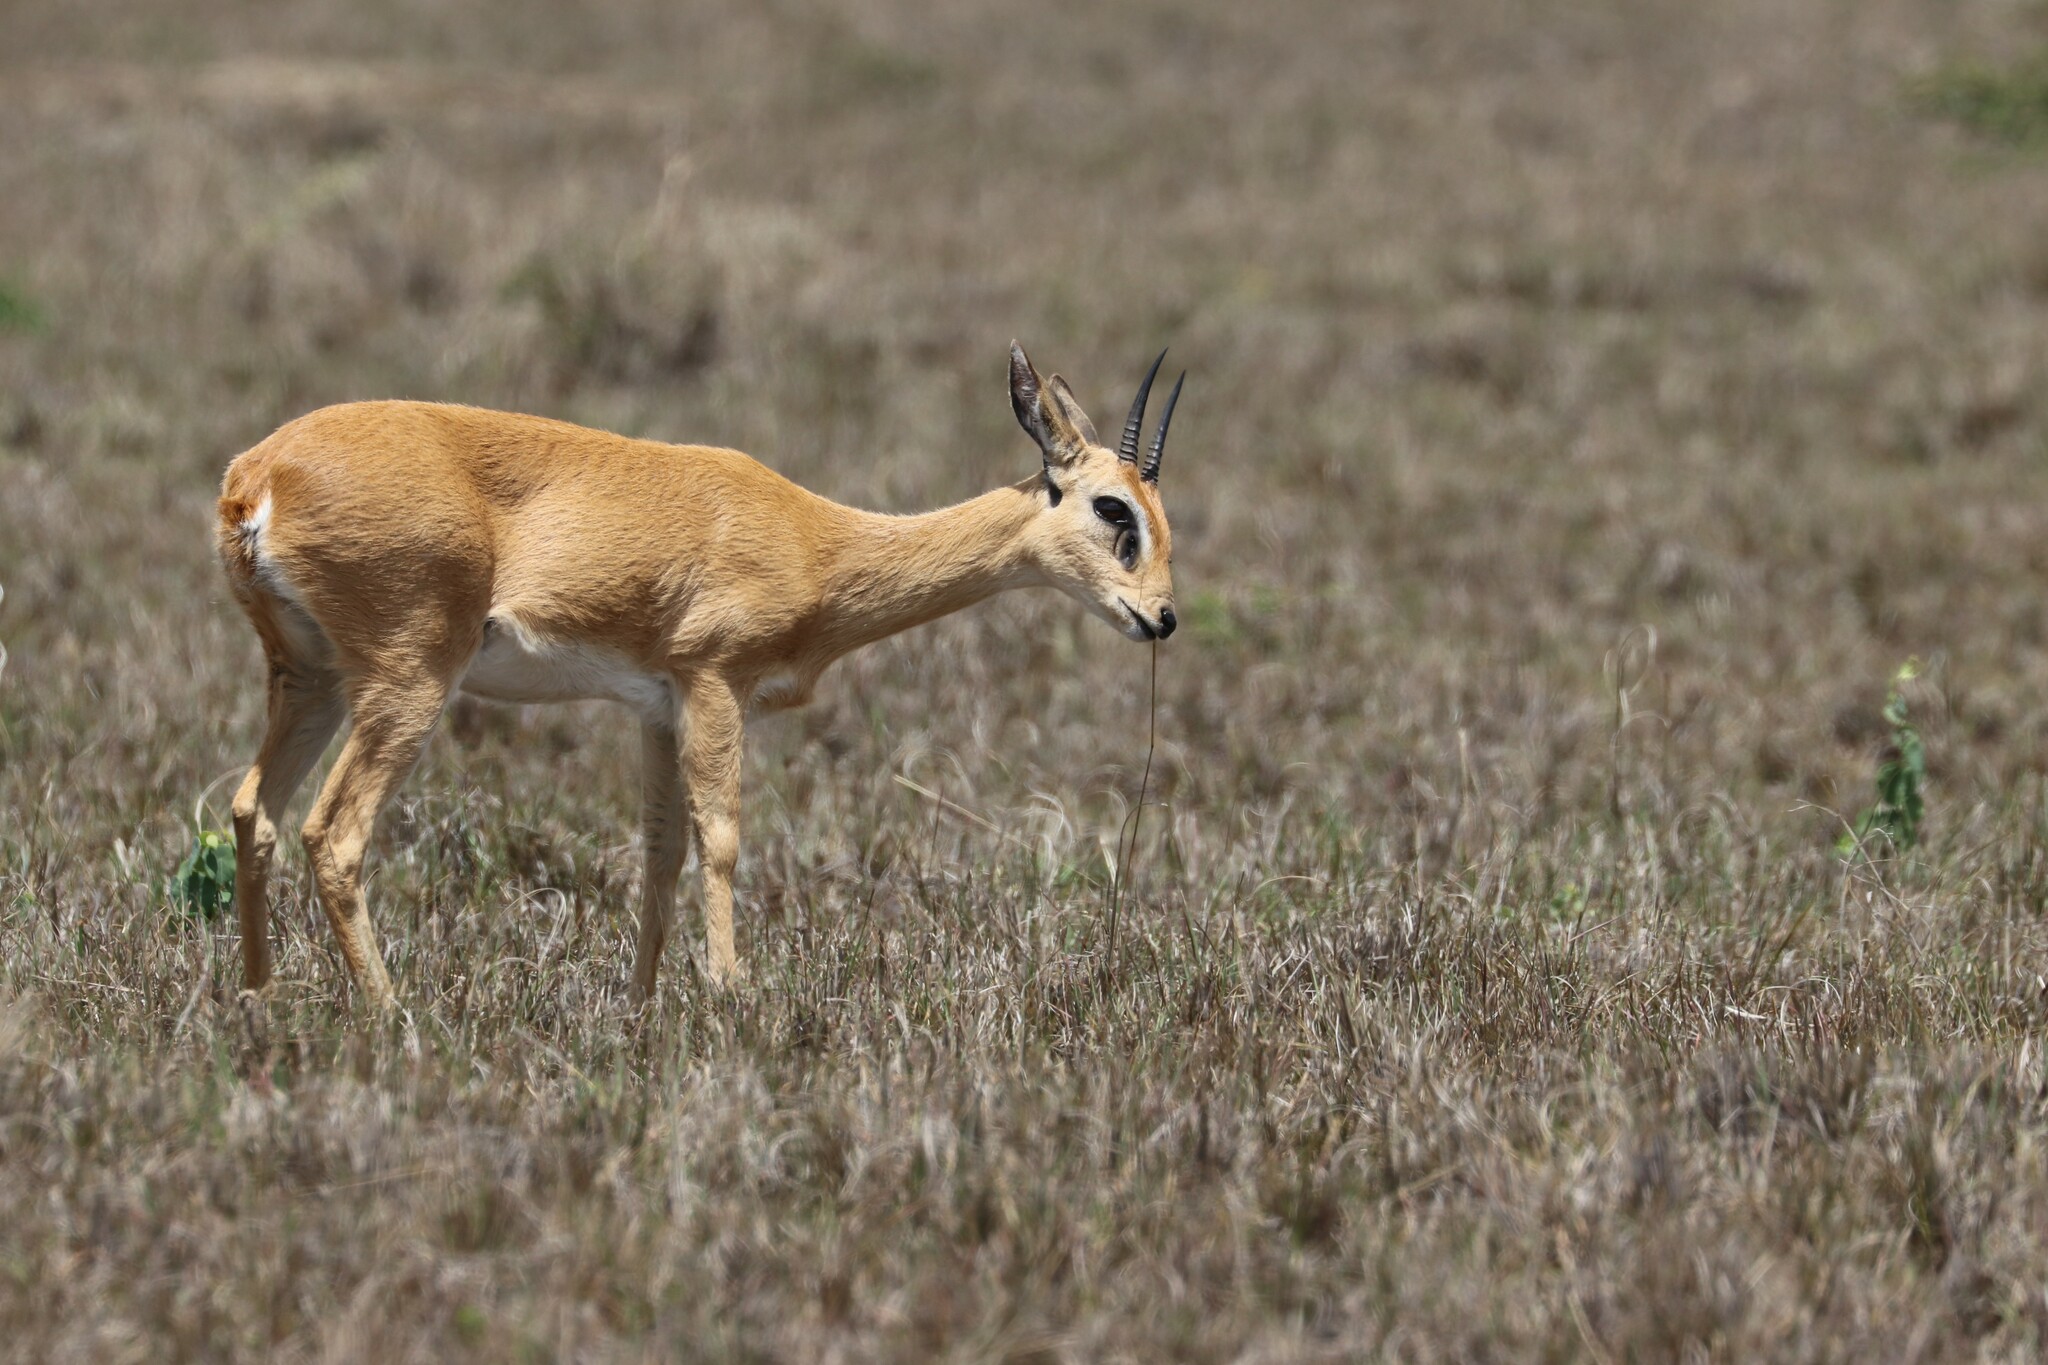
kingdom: Animalia
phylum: Chordata
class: Mammalia
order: Artiodactyla
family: Bovidae
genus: Ourebia
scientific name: Ourebia ourebi
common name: Oribi
